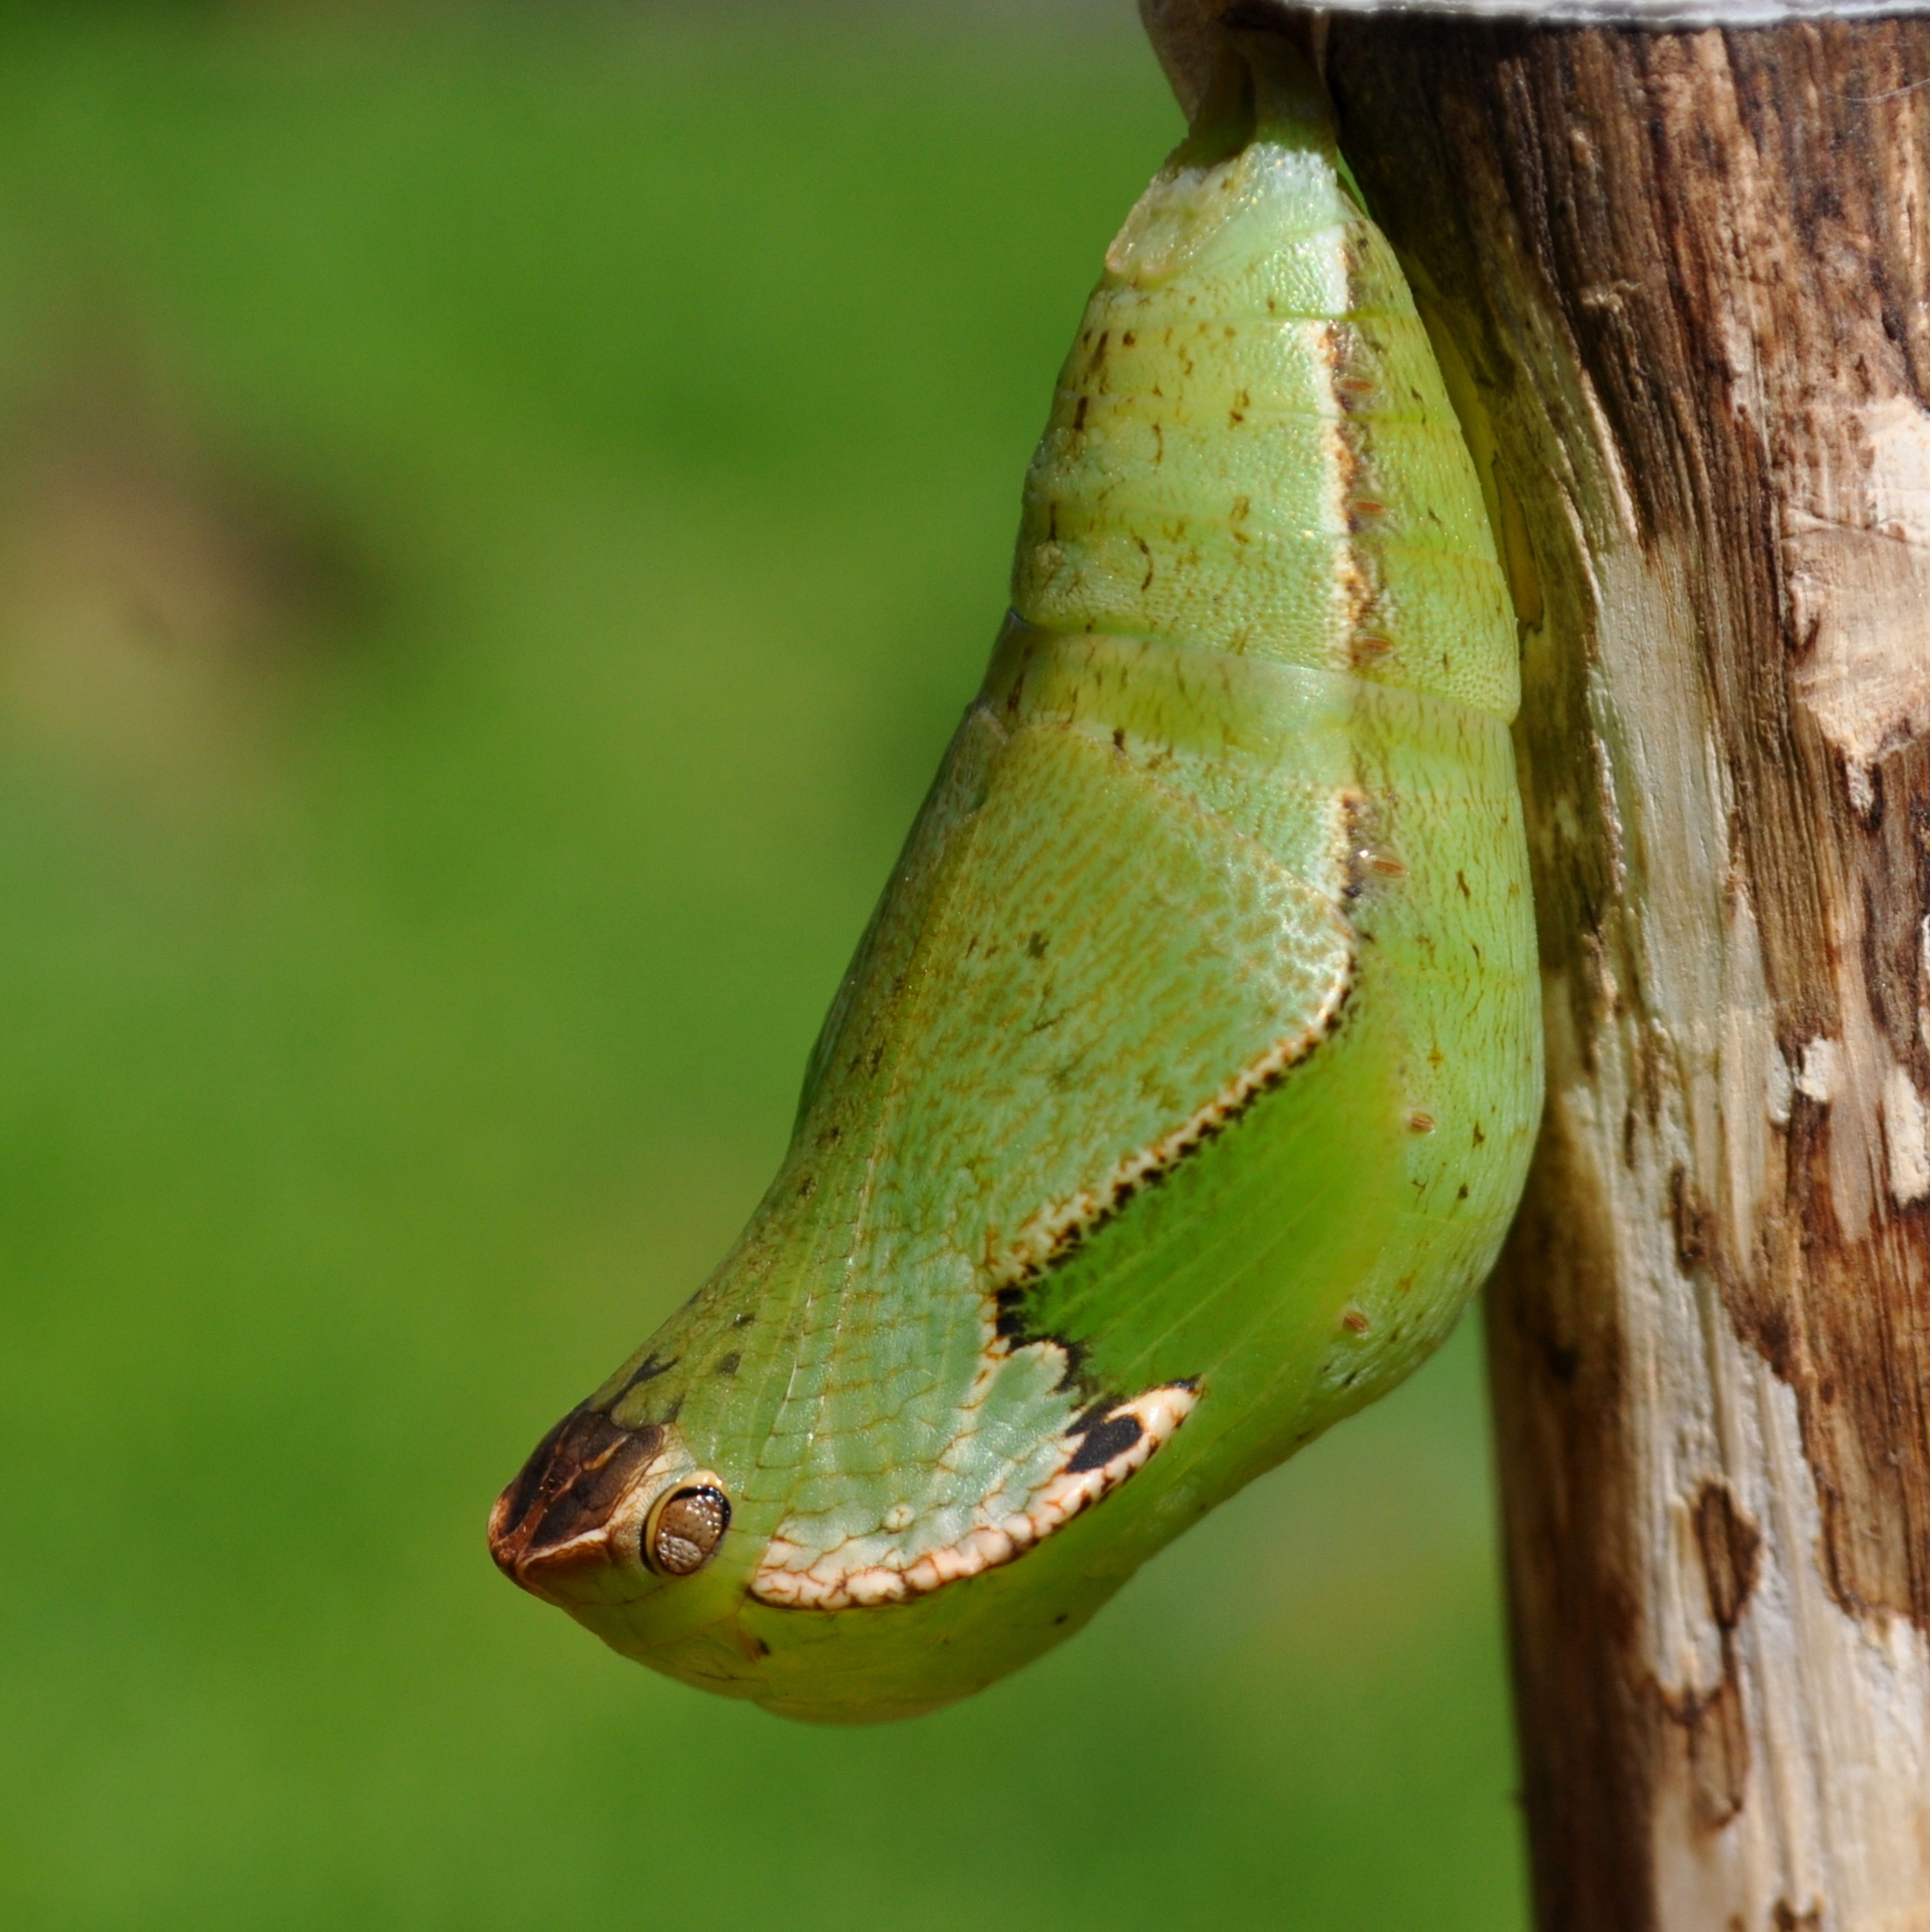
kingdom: Animalia
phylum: Arthropoda
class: Insecta
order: Lepidoptera
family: Nymphalidae
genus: Dynastor
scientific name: Dynastor darius
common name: Daring owl-butterfly
